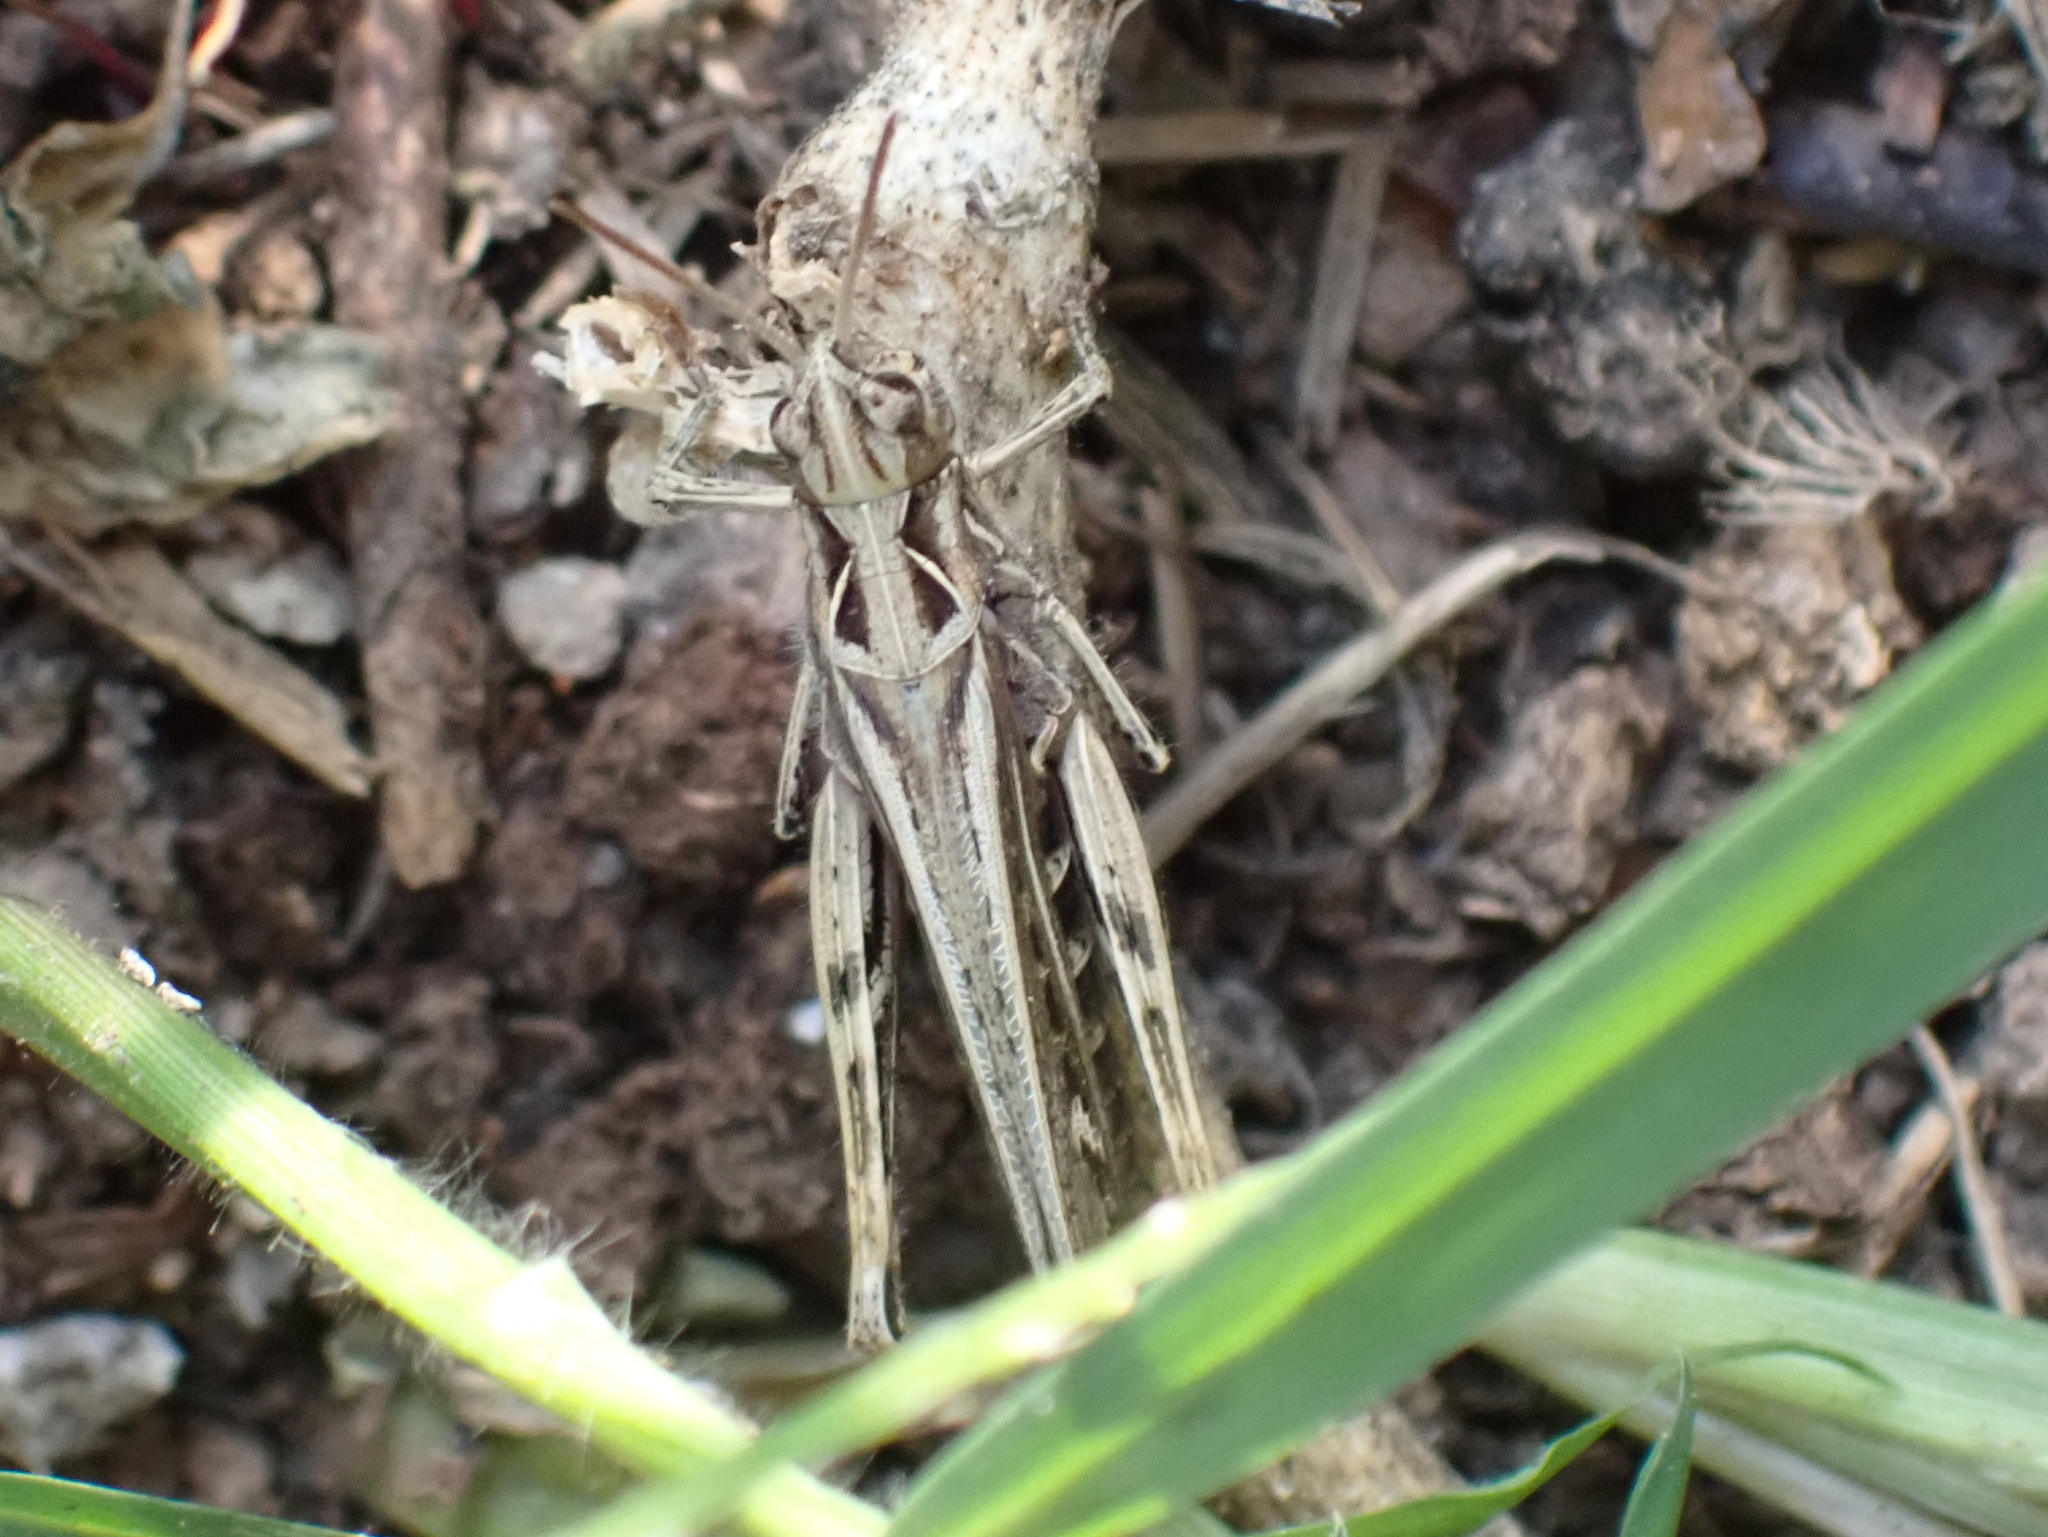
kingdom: Animalia
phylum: Arthropoda
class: Insecta
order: Orthoptera
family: Acrididae
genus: Chorthippus
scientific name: Chorthippus brunneus
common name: Field grasshopper
